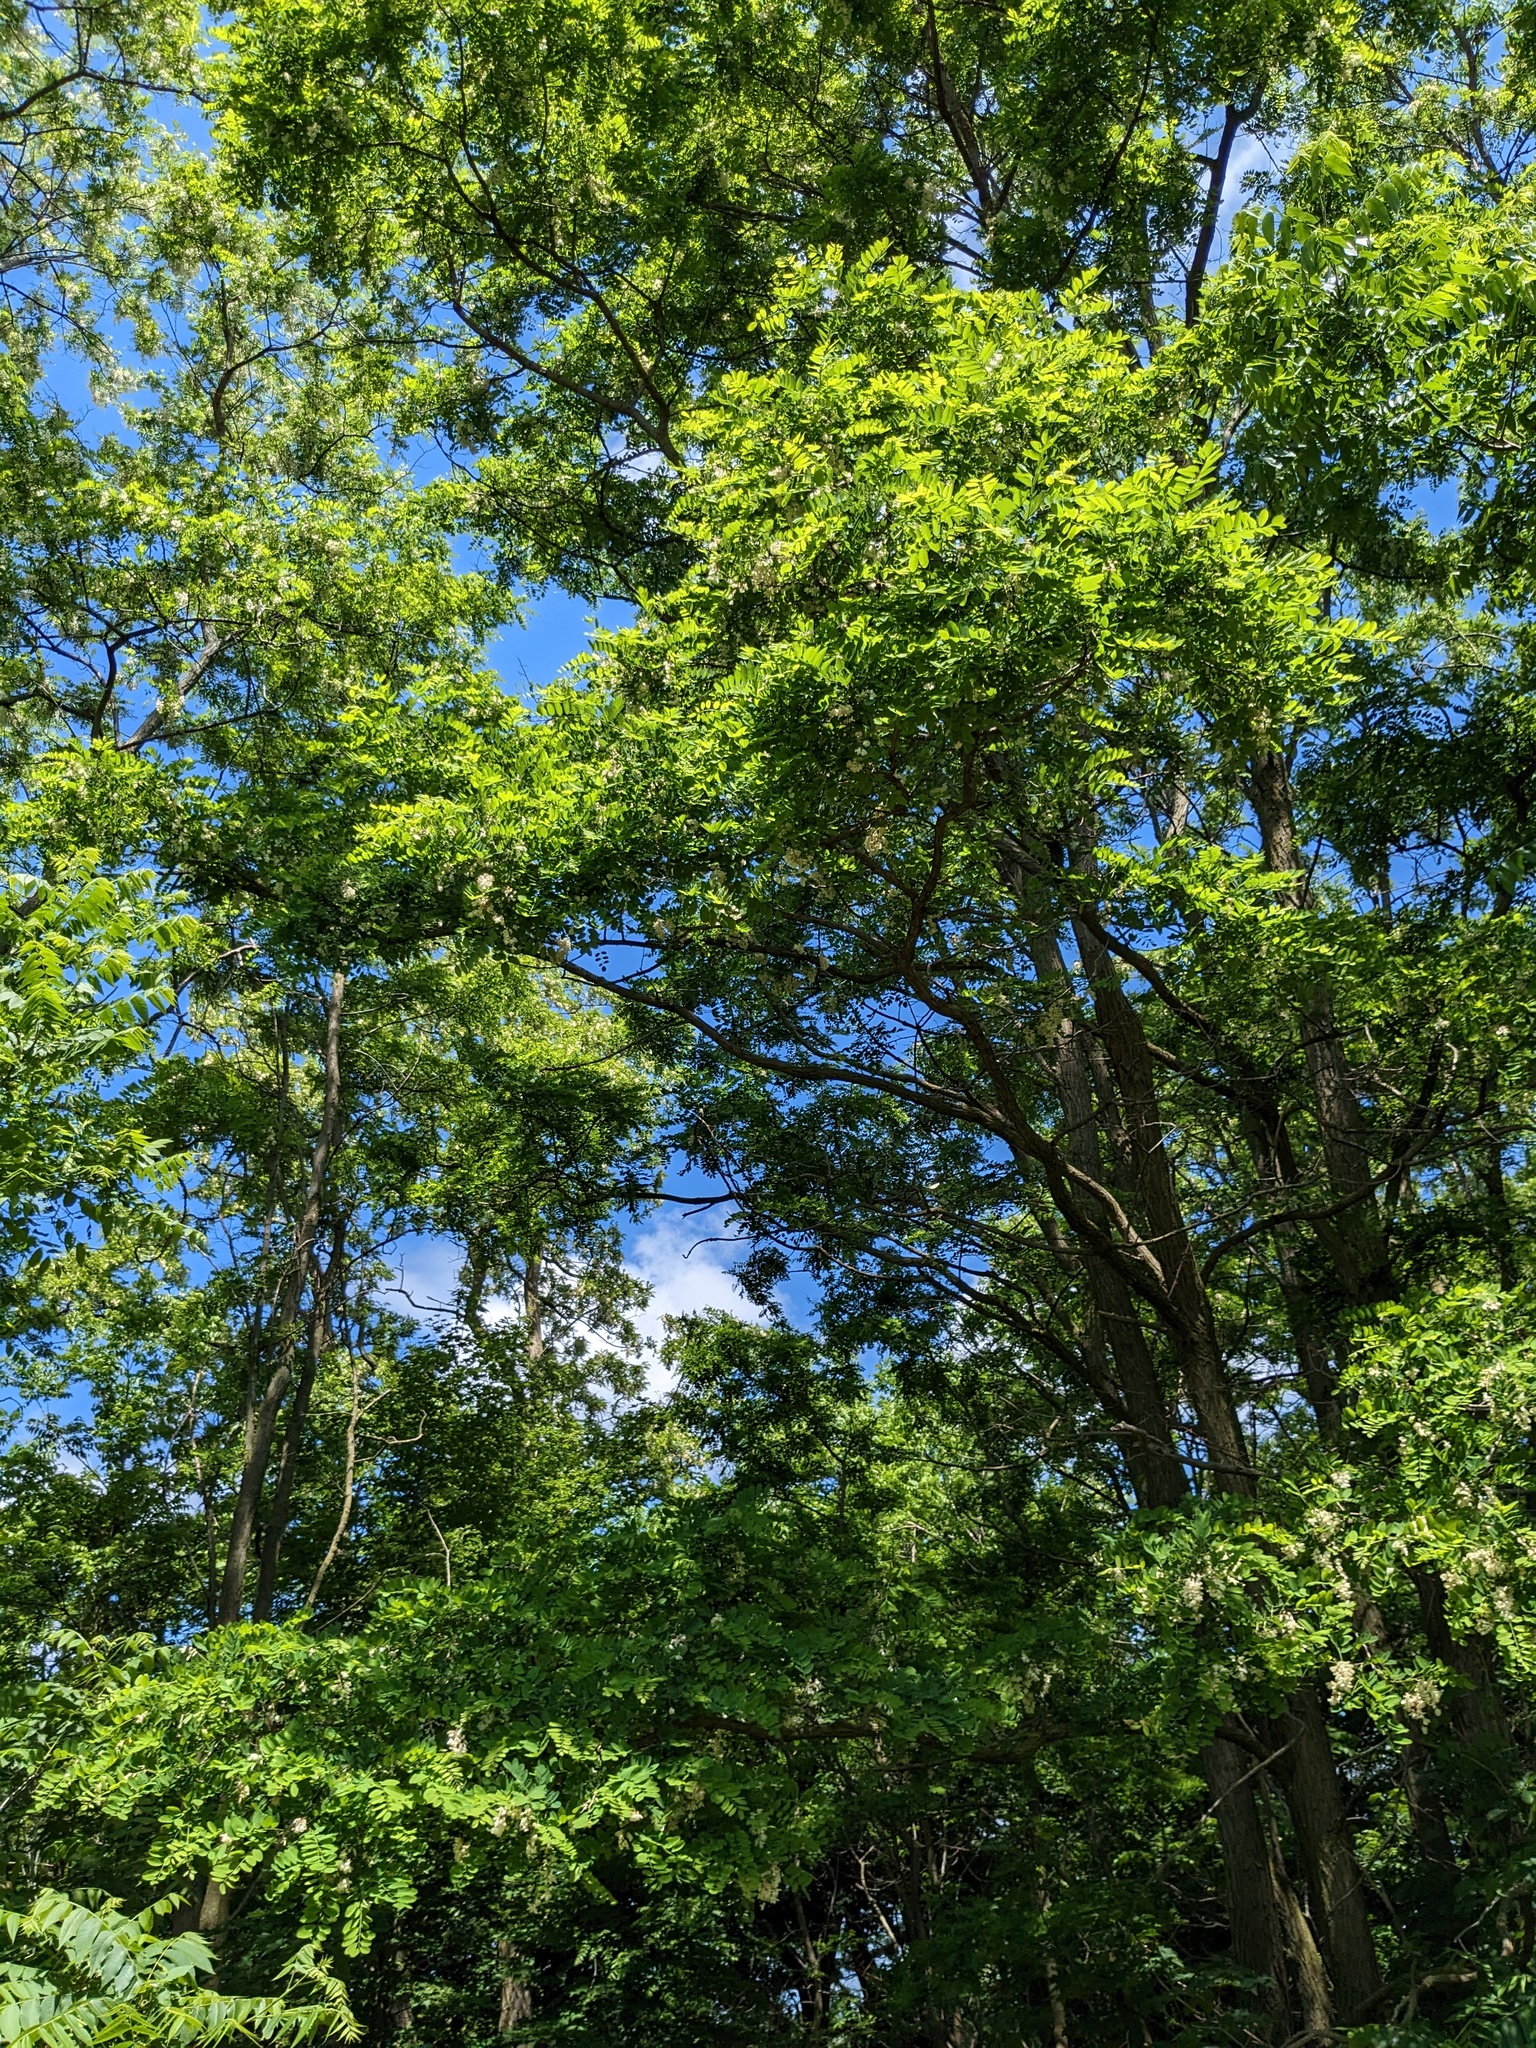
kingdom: Plantae
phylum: Tracheophyta
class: Magnoliopsida
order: Fabales
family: Fabaceae
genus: Robinia
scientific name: Robinia pseudoacacia
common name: Black locust
